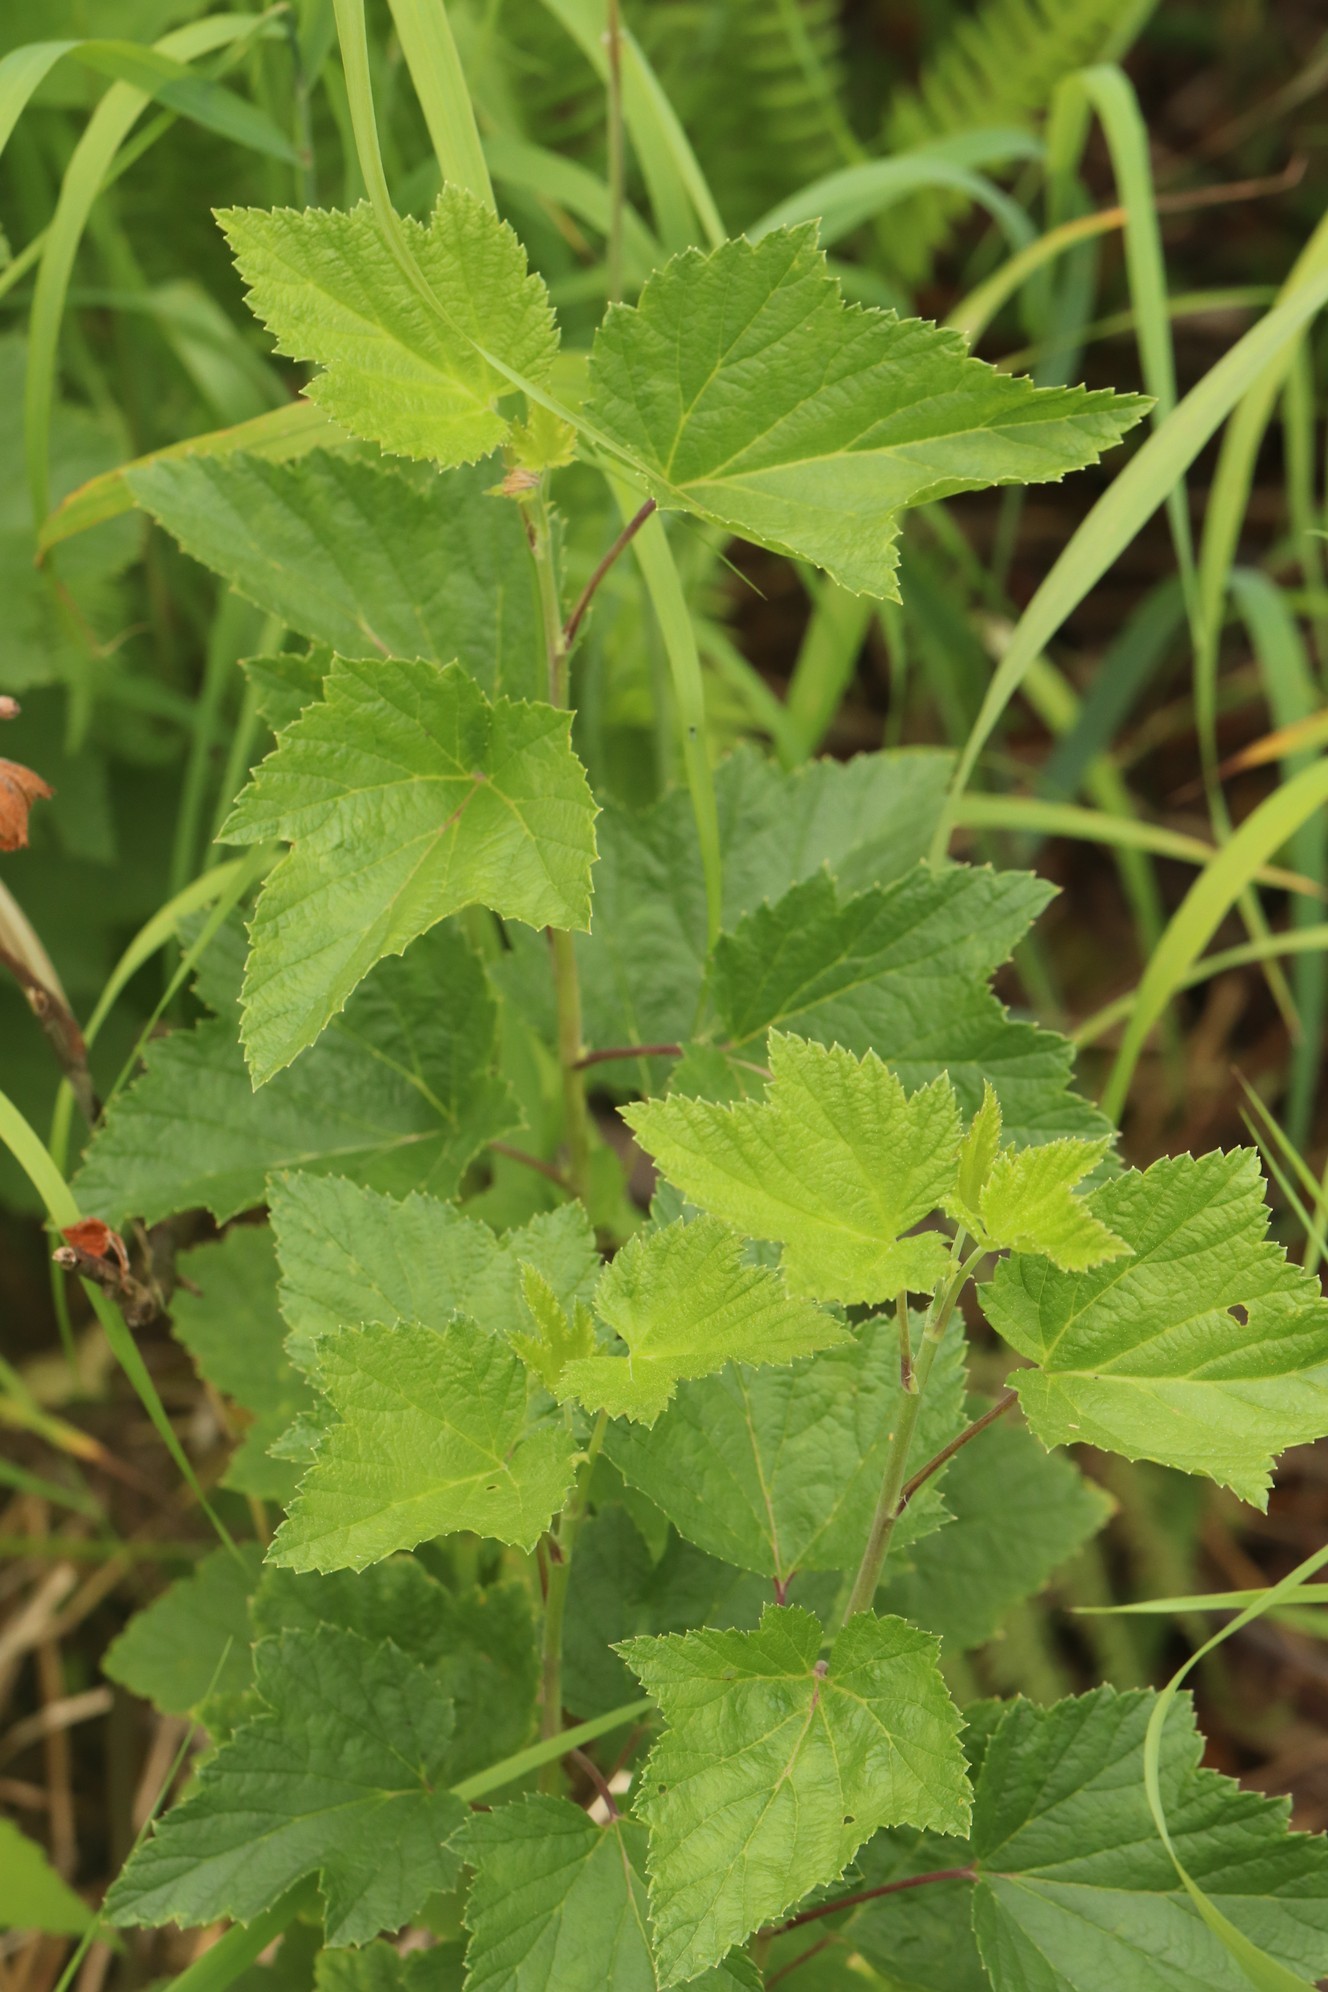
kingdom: Plantae
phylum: Tracheophyta
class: Magnoliopsida
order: Saxifragales
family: Grossulariaceae
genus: Ribes
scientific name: Ribes nigrum
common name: Black currant
